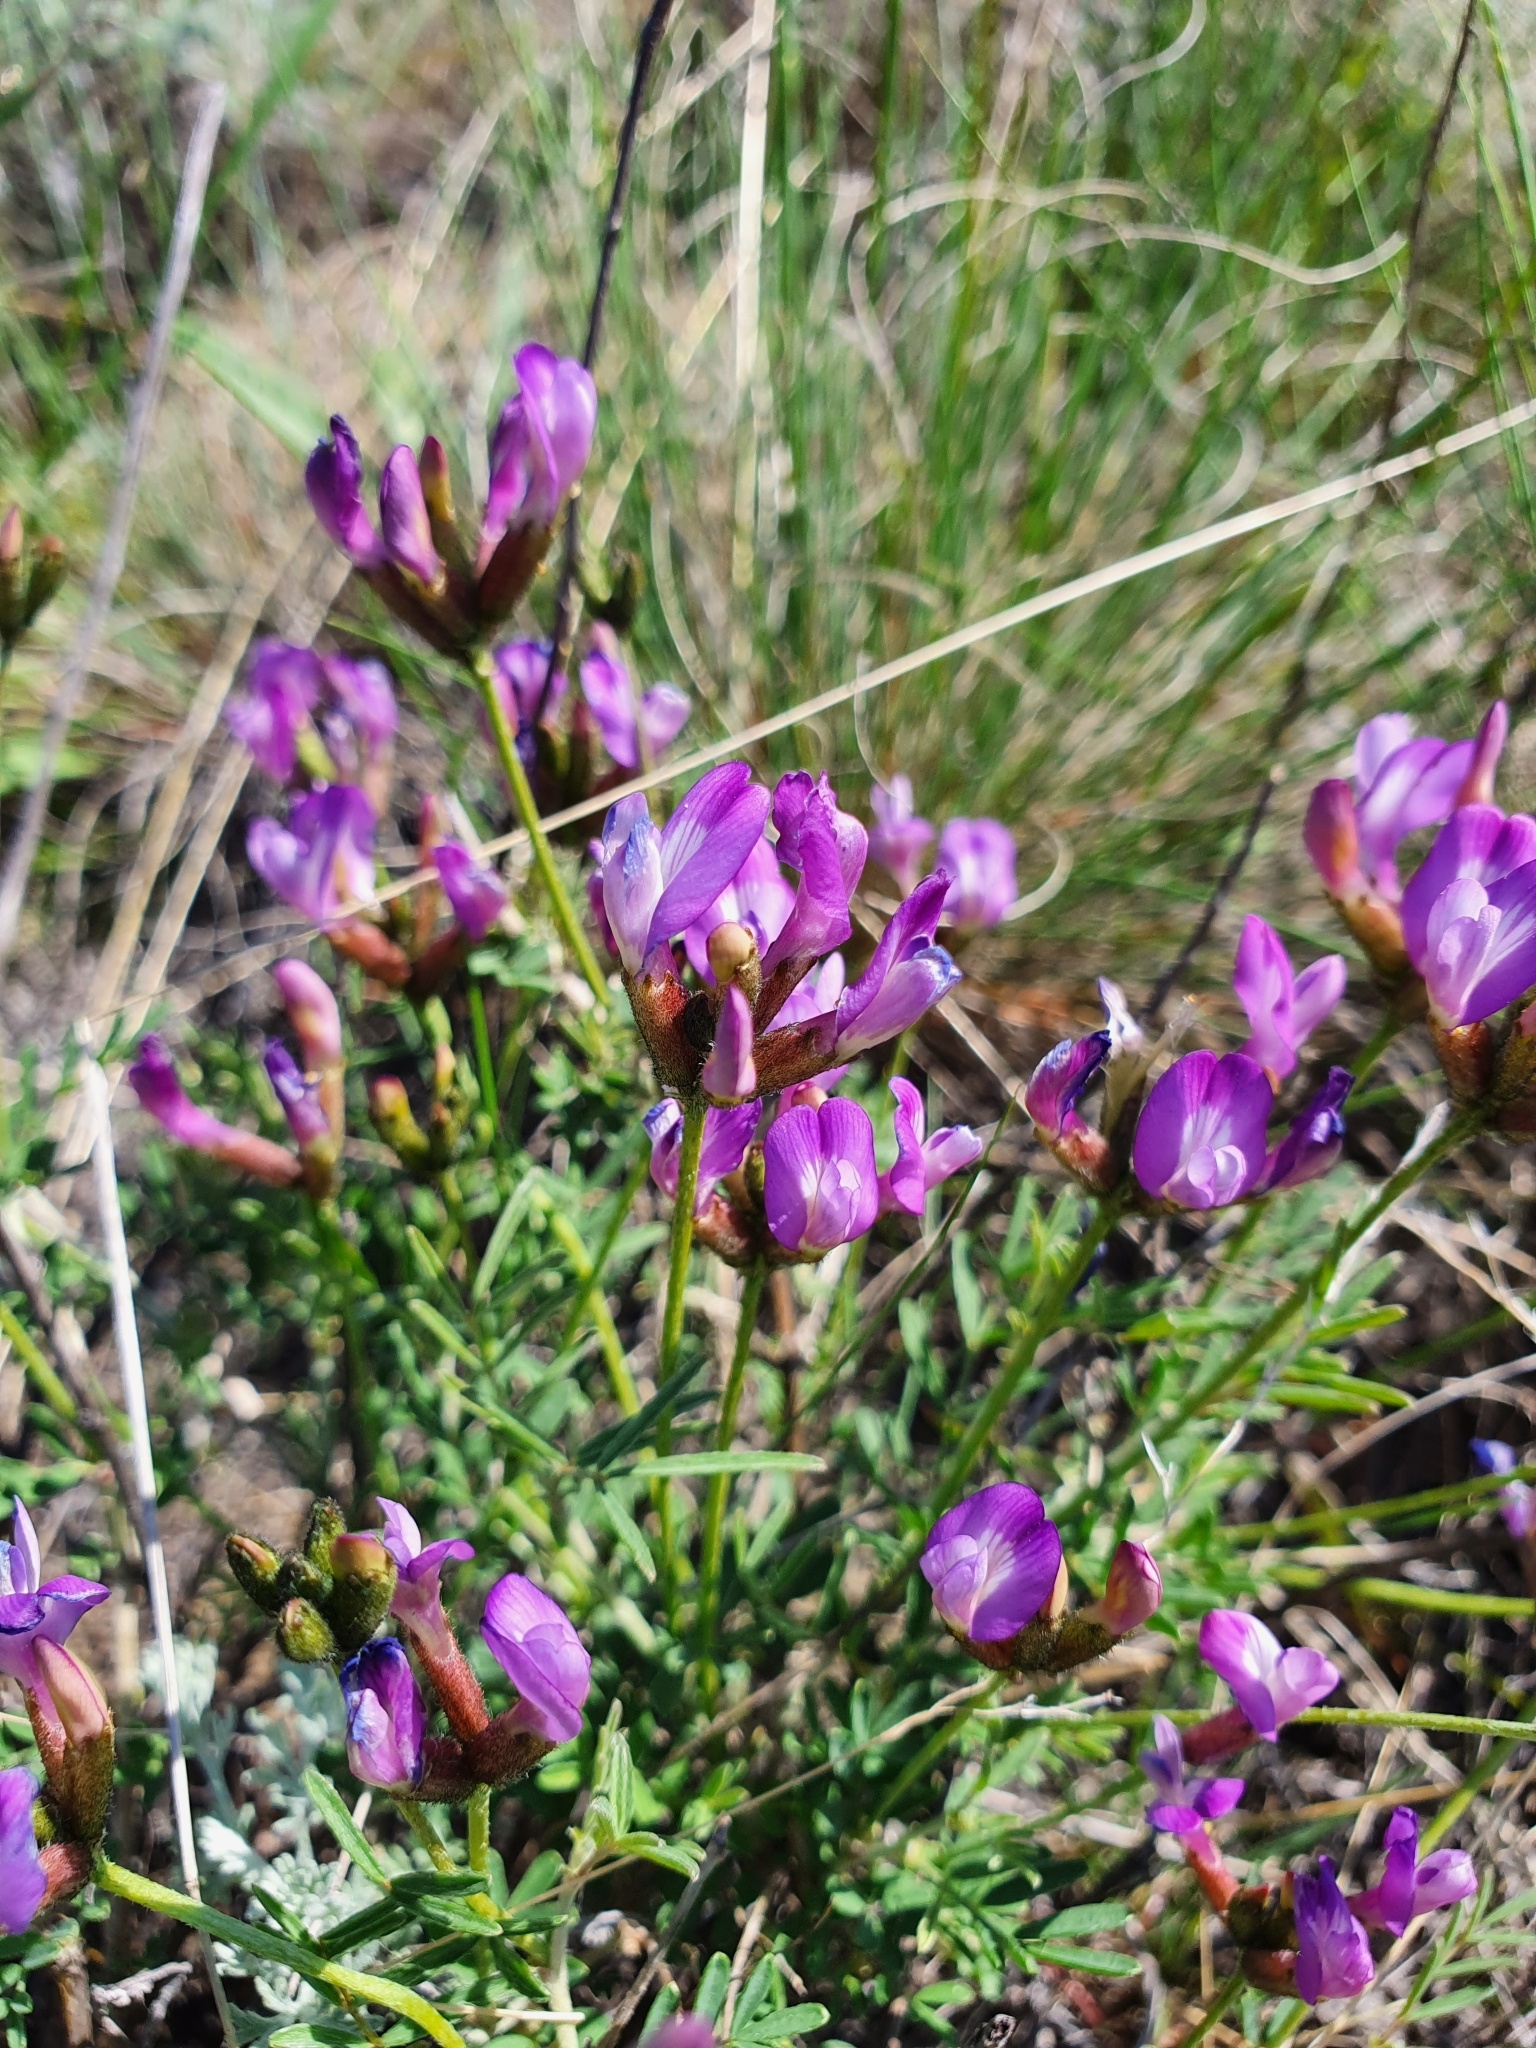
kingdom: Plantae
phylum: Tracheophyta
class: Magnoliopsida
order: Fabales
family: Fabaceae
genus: Astragalus
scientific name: Astragalus temirensis
